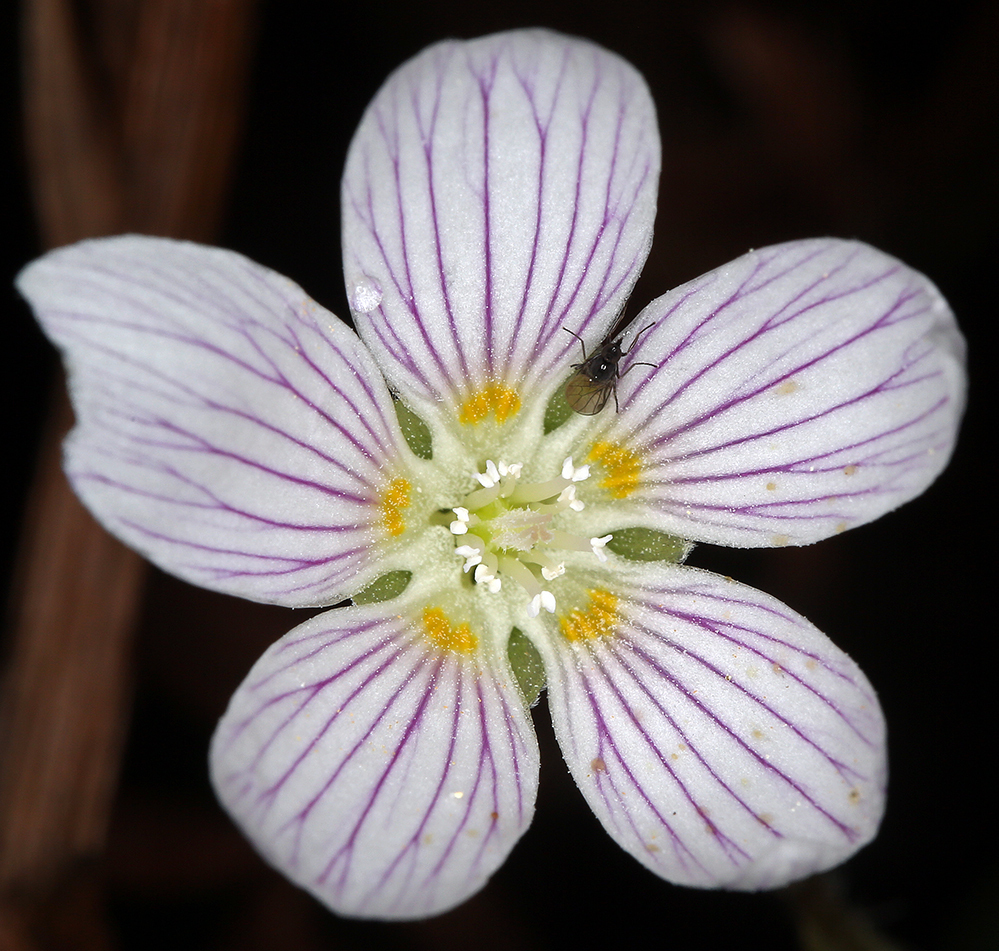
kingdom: Plantae
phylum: Tracheophyta
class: Magnoliopsida
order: Oxalidales
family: Oxalidaceae
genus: Oxalis
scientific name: Oxalis oregana
